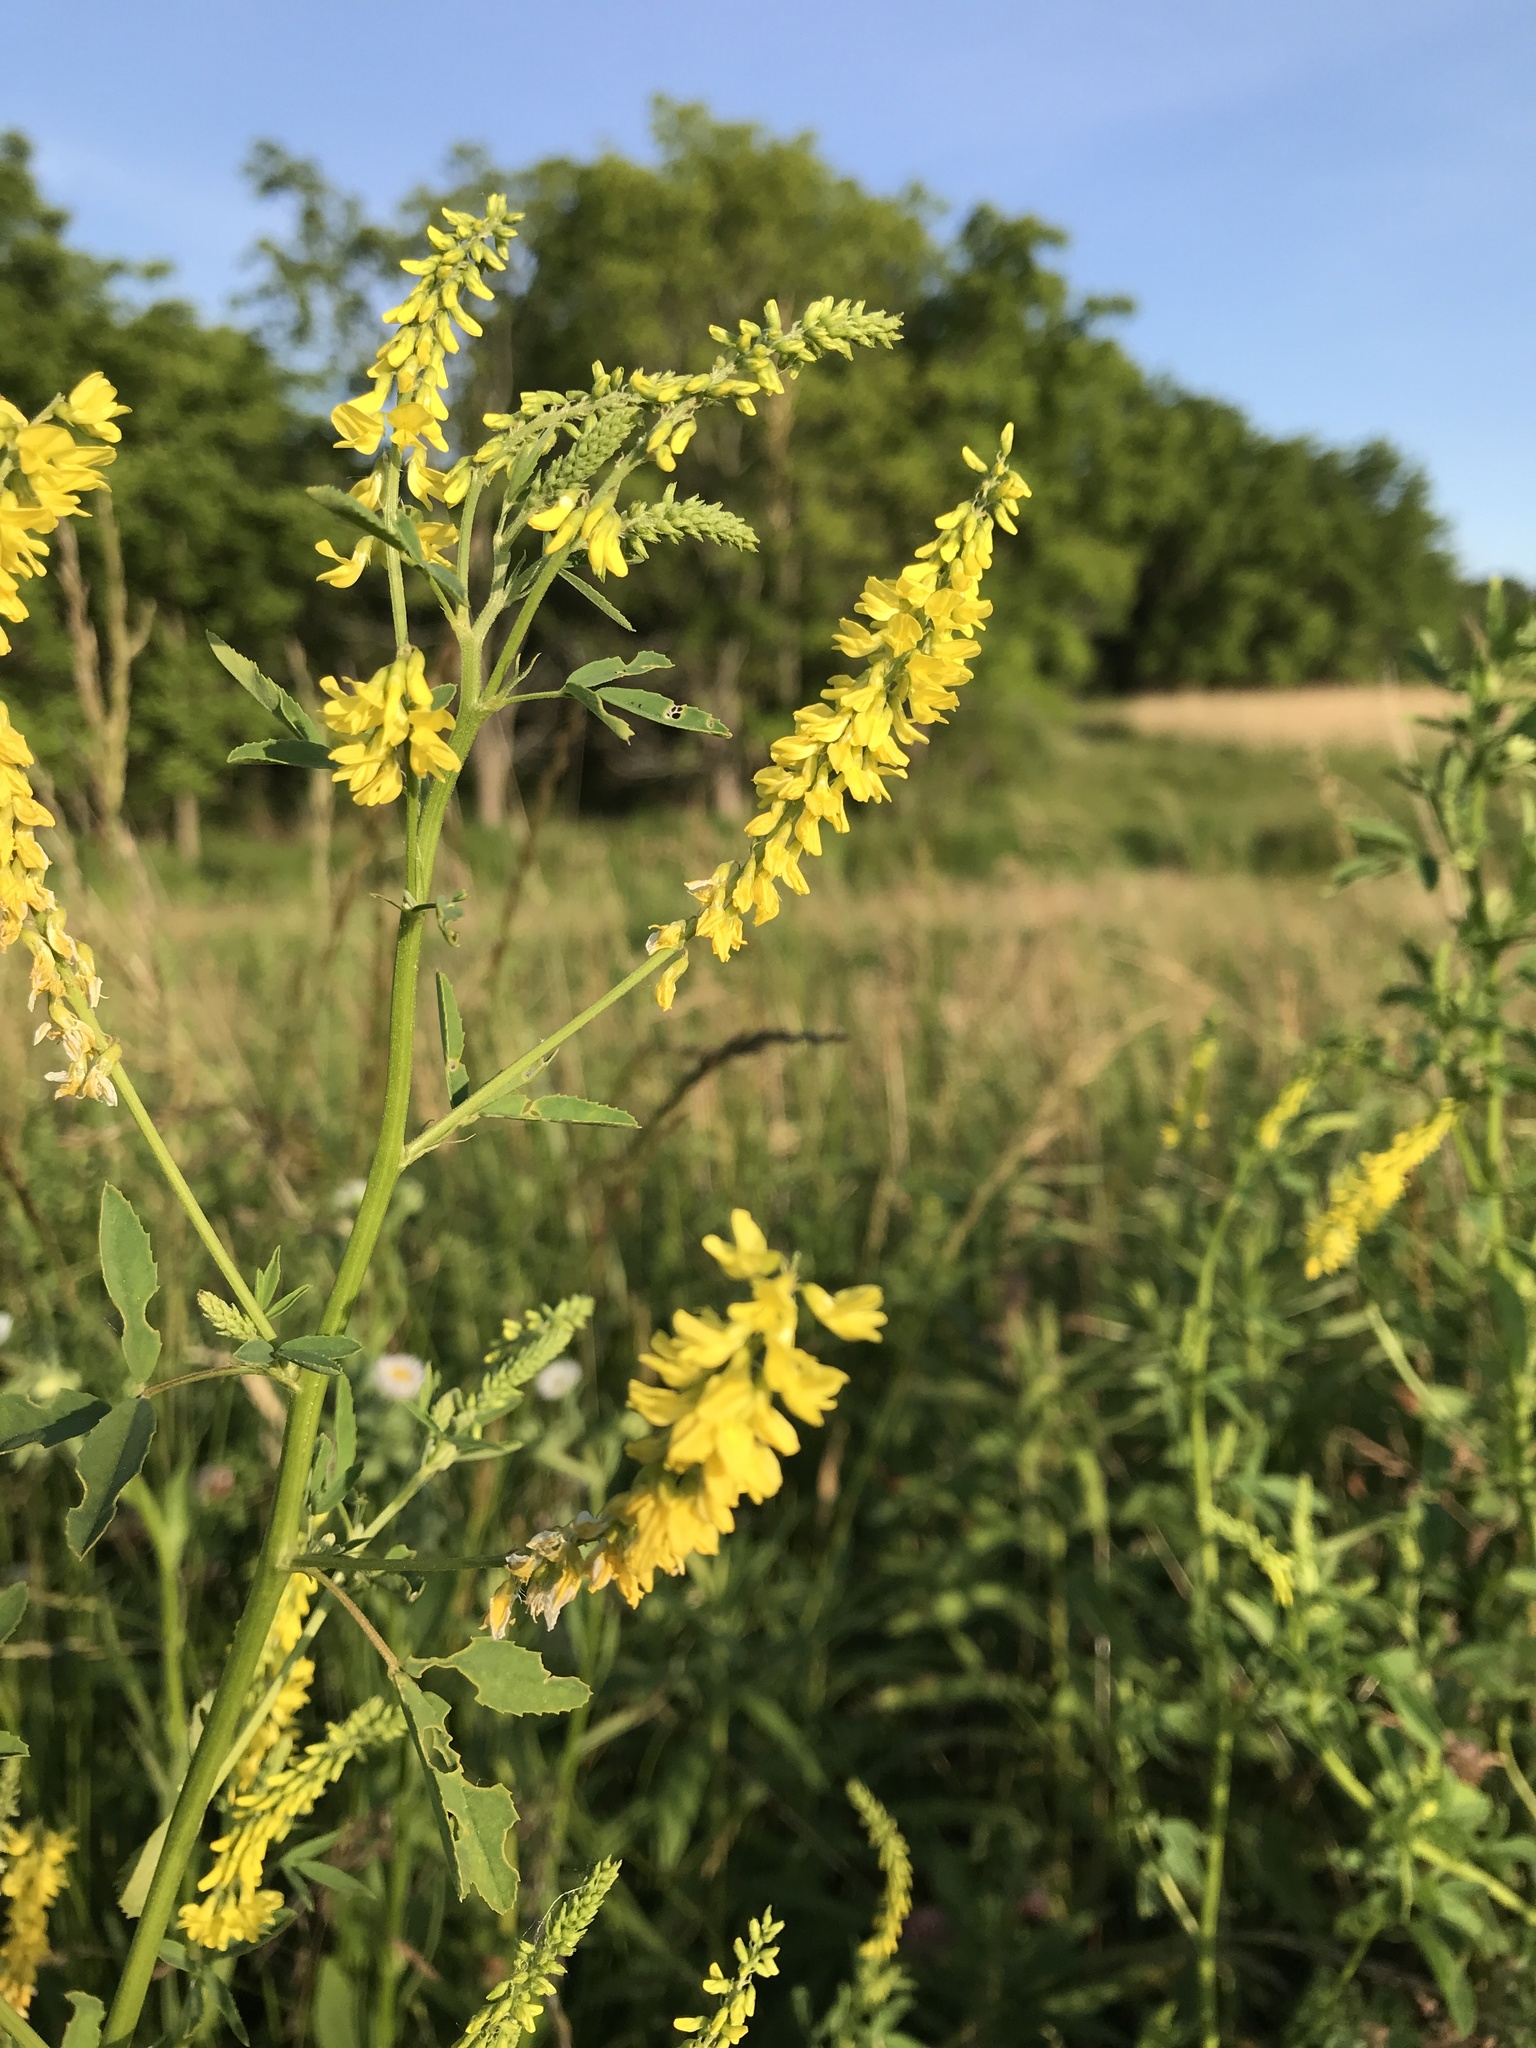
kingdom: Plantae
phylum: Tracheophyta
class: Magnoliopsida
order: Fabales
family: Fabaceae
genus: Melilotus
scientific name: Melilotus officinalis
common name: Sweetclover
